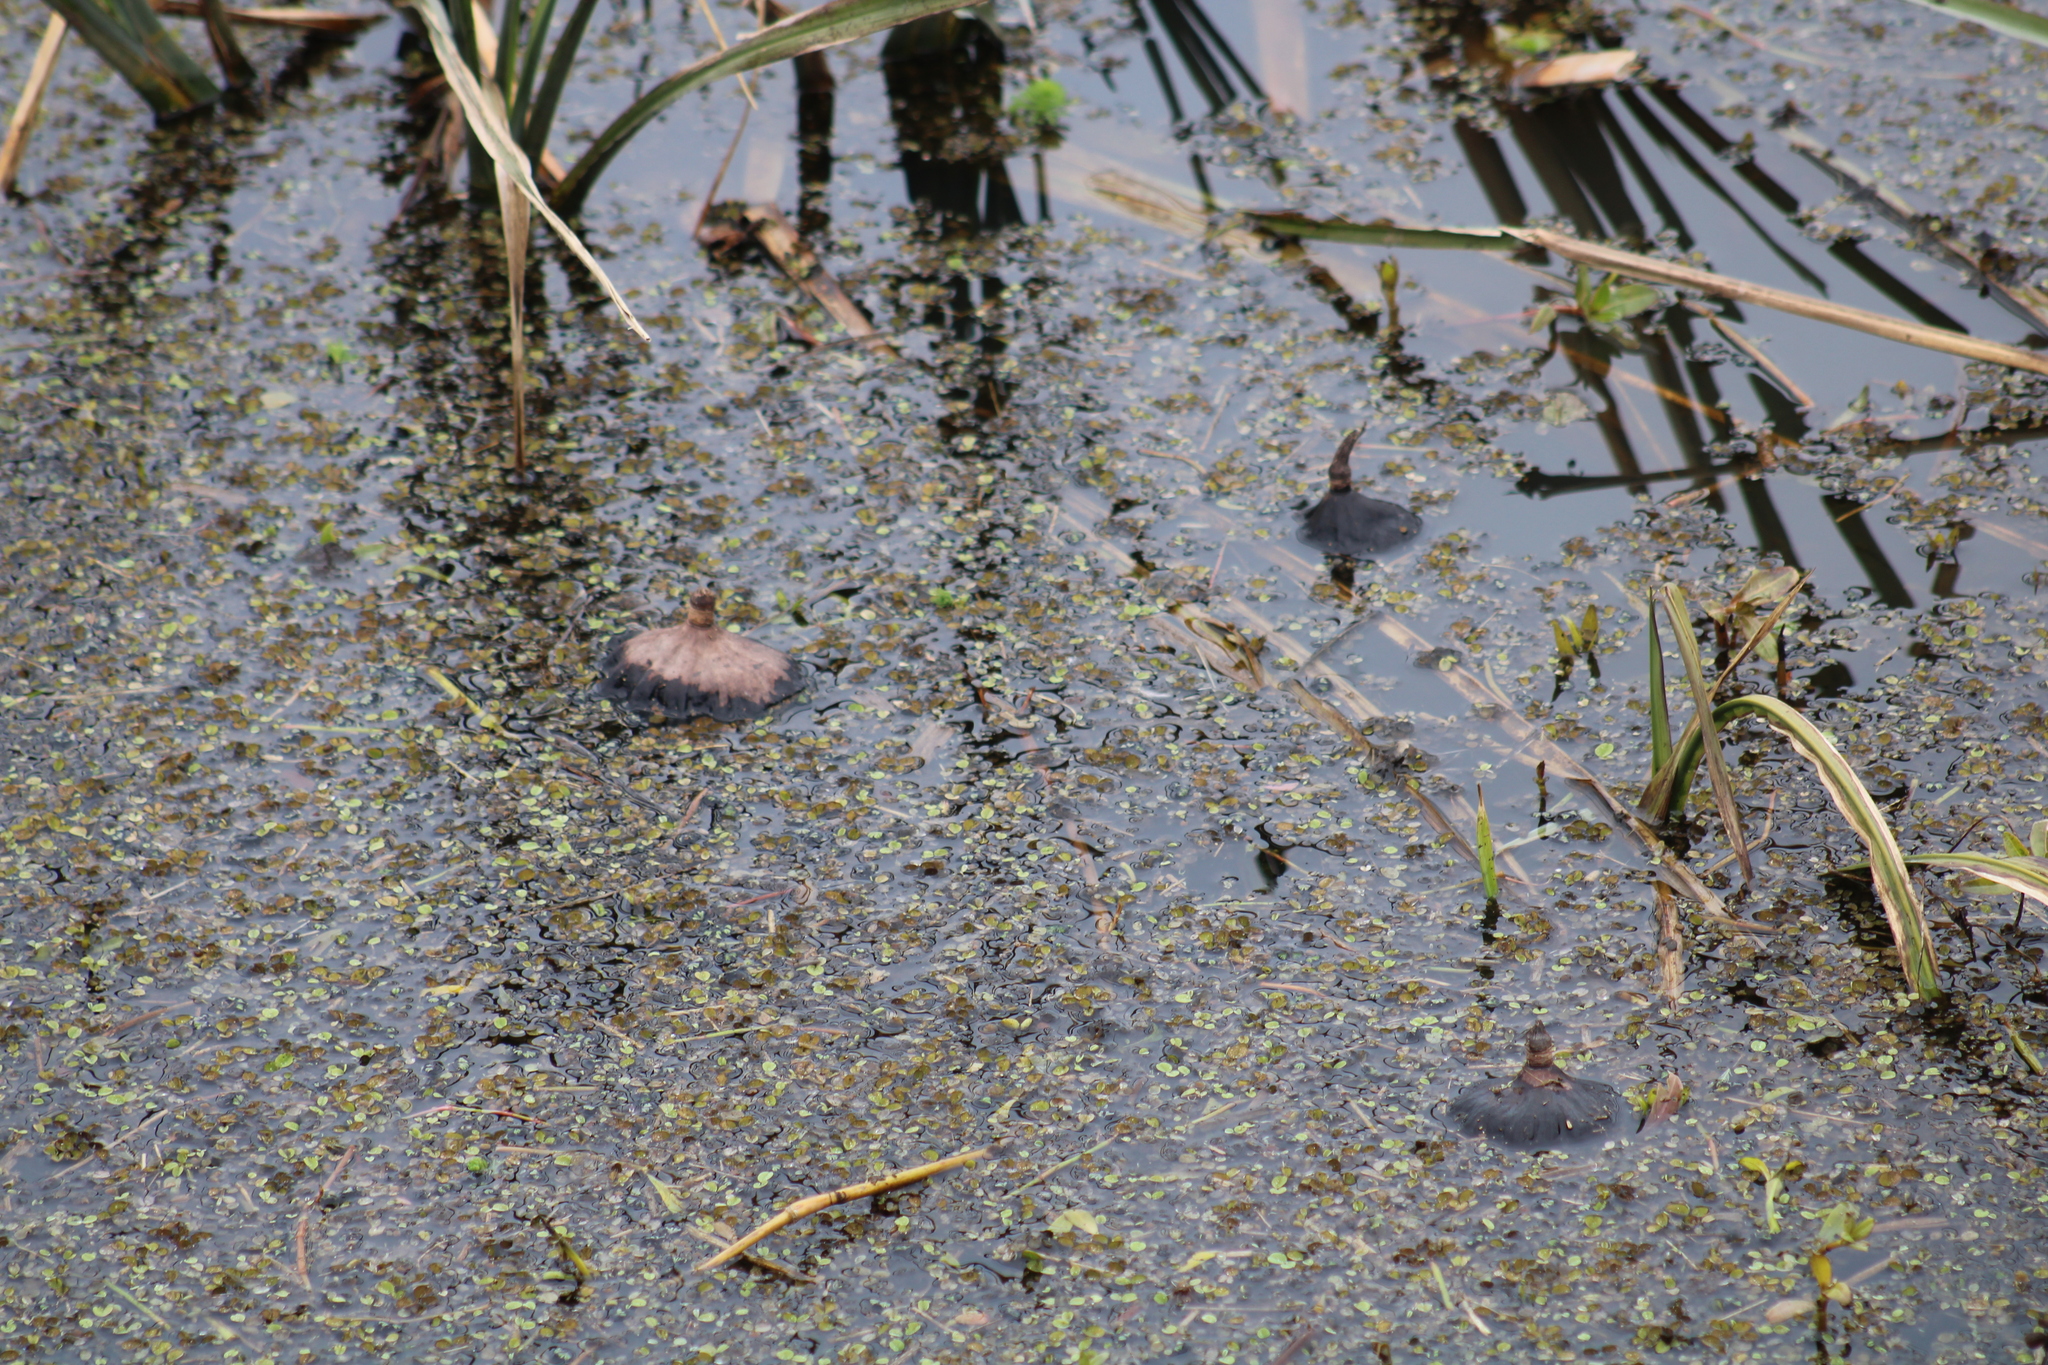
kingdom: Plantae
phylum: Tracheophyta
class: Magnoliopsida
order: Proteales
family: Nelumbonaceae
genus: Nelumbo
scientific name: Nelumbo lutea
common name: American lotus
